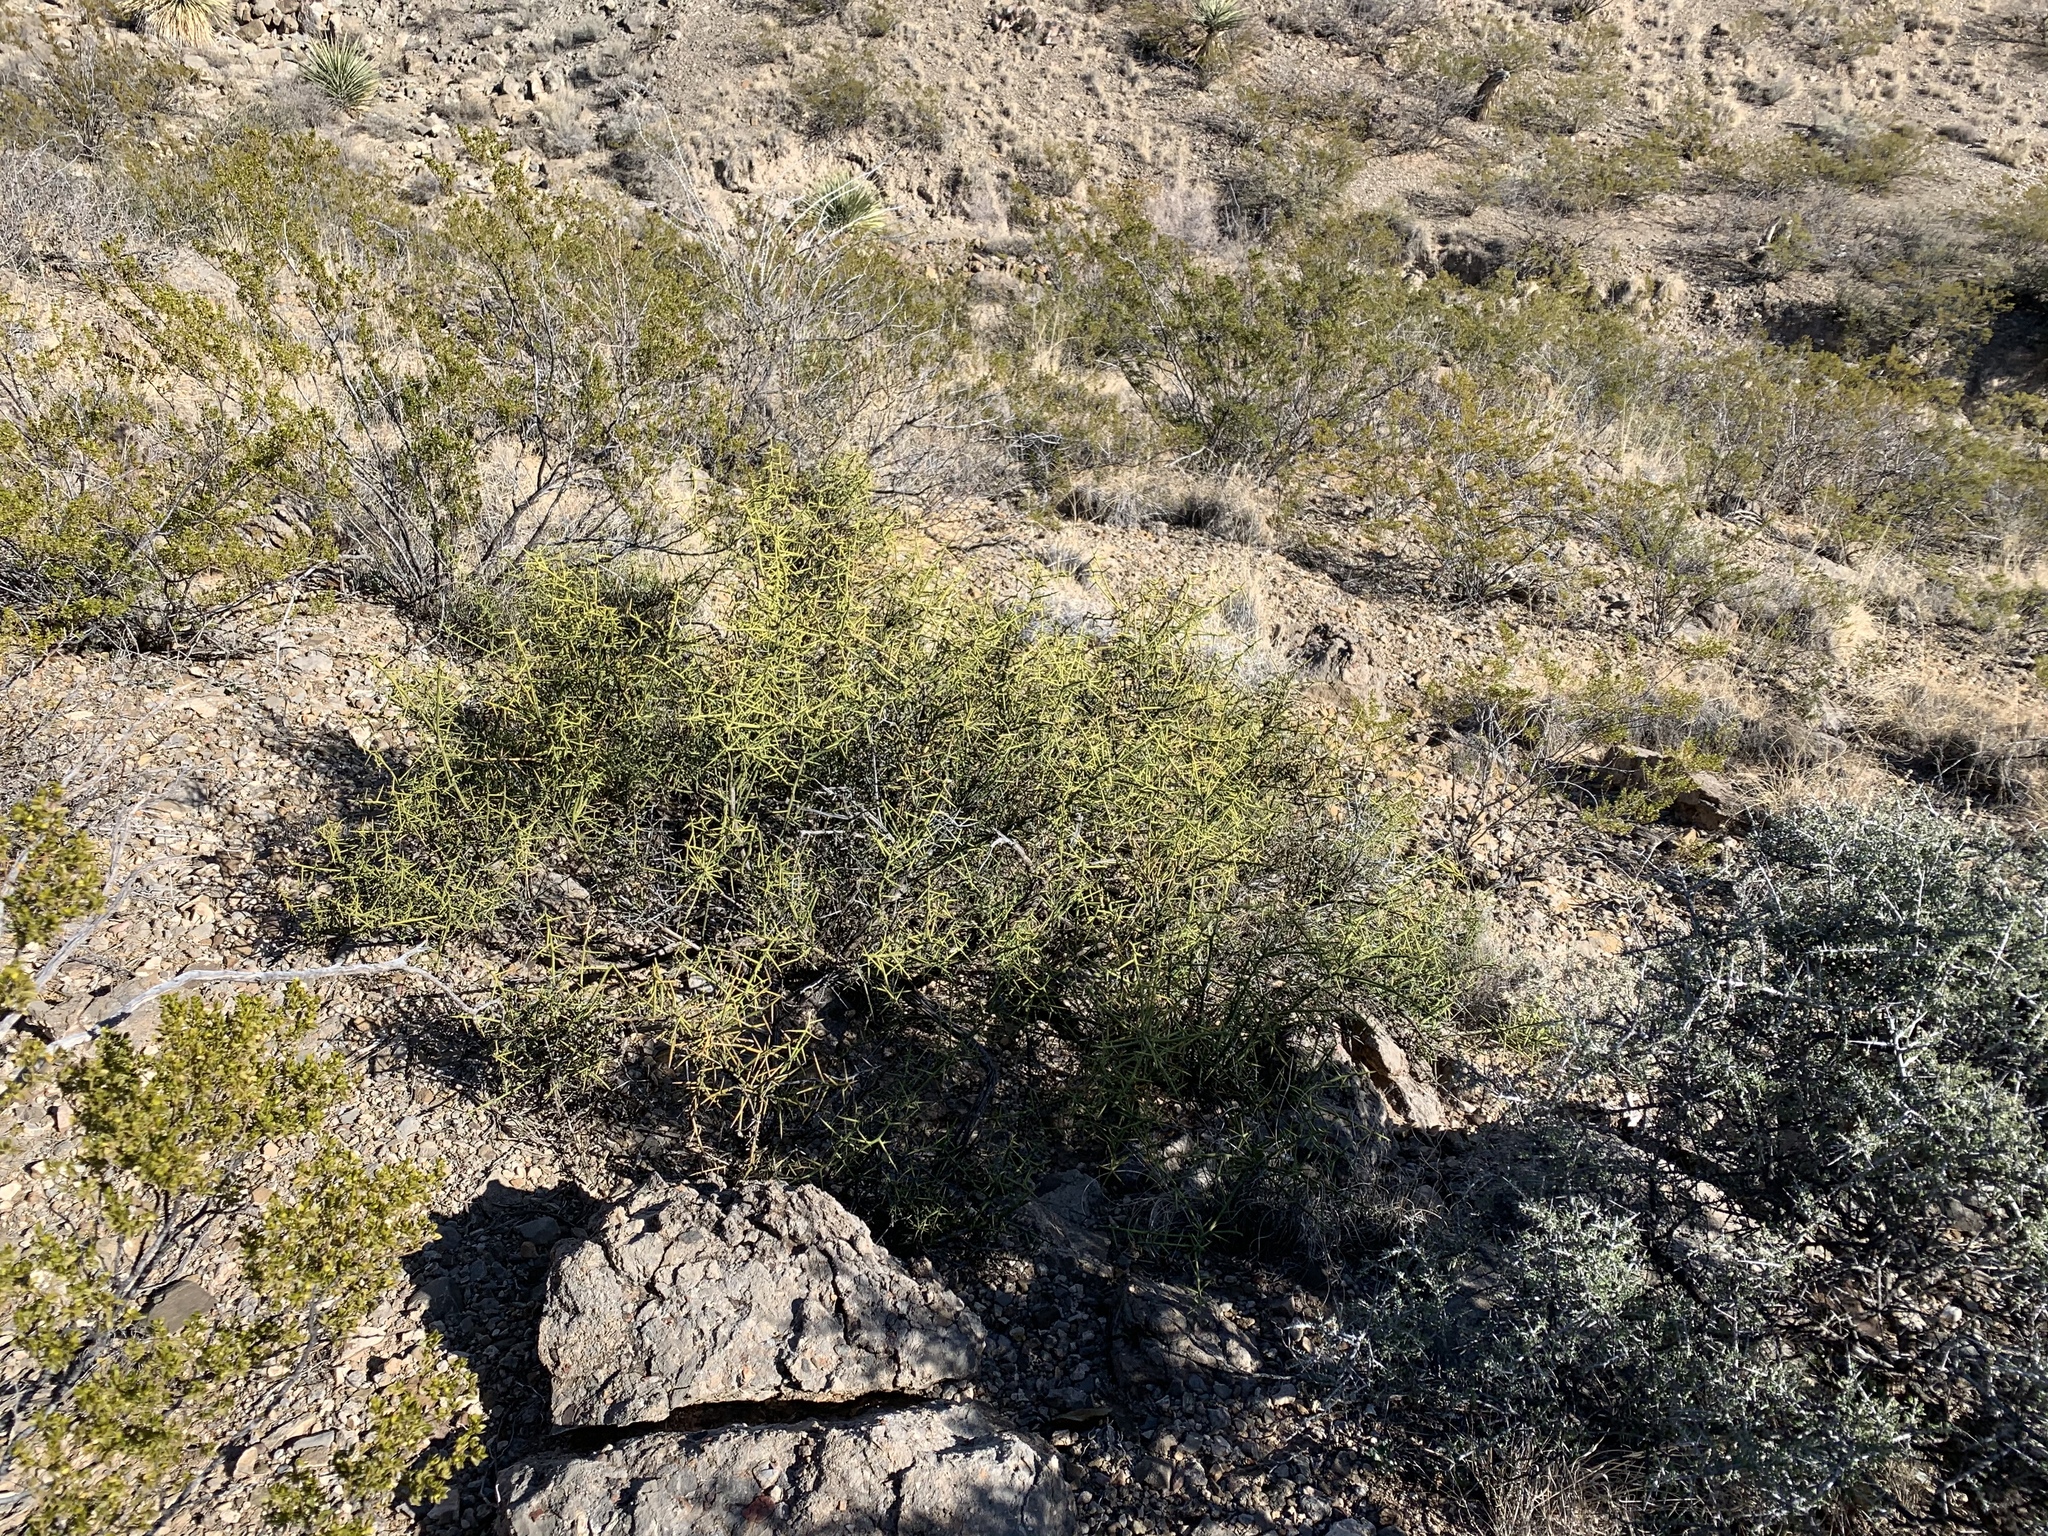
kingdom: Plantae
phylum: Tracheophyta
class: Magnoliopsida
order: Brassicales
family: Koeberliniaceae
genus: Koeberlinia
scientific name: Koeberlinia spinosa
